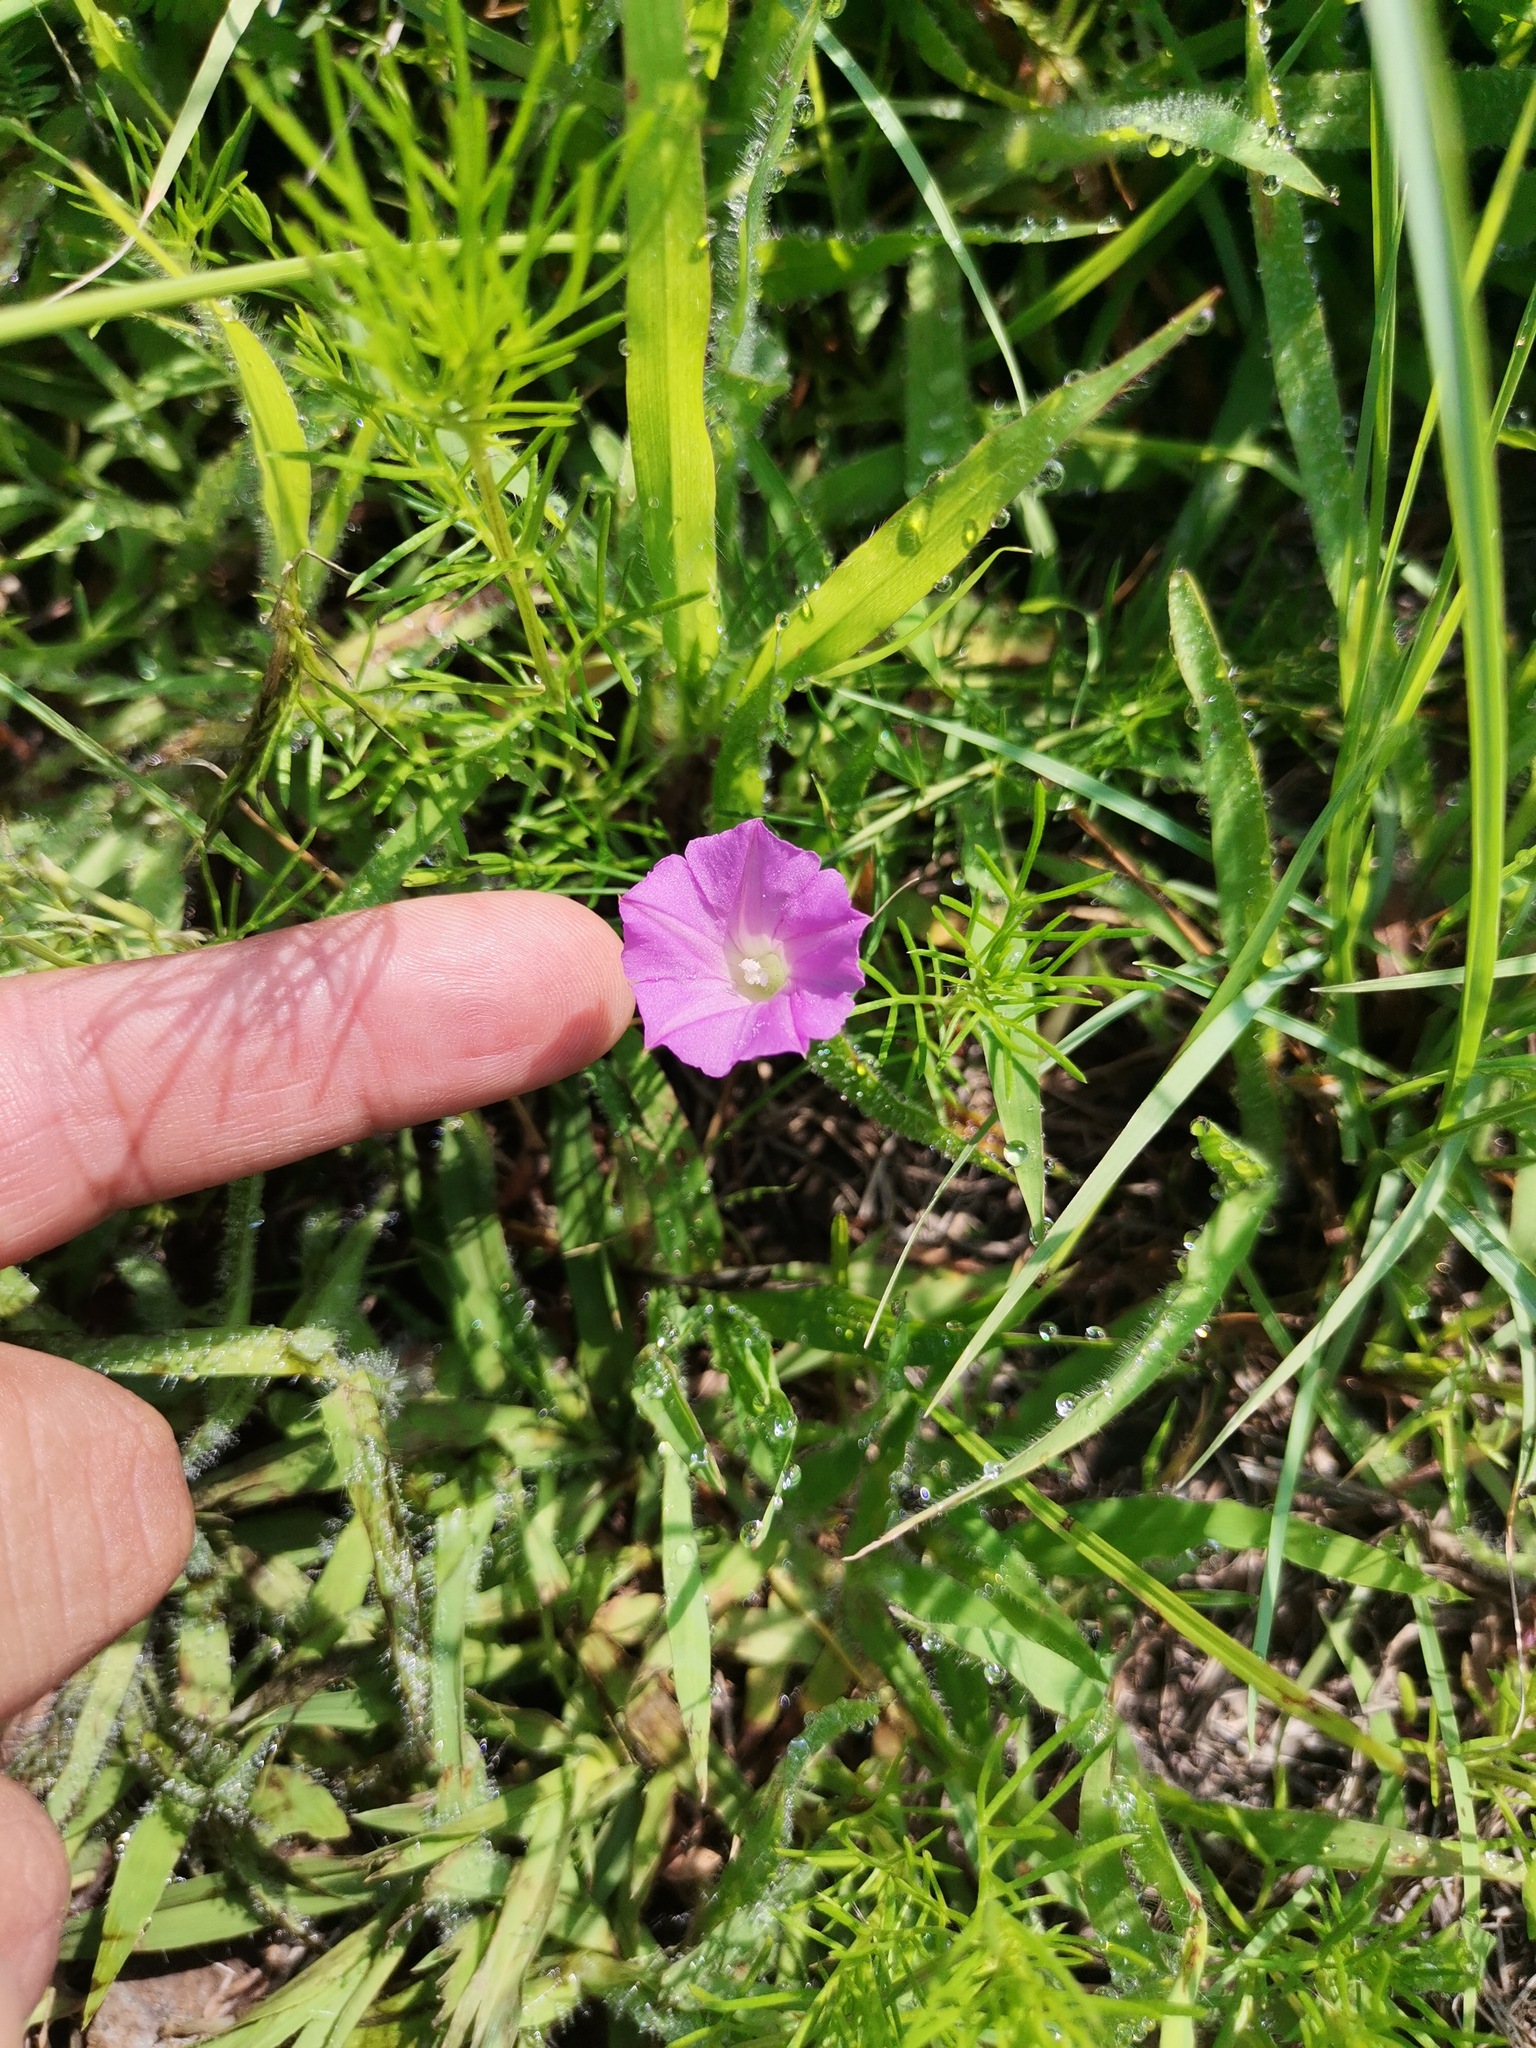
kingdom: Plantae
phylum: Tracheophyta
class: Magnoliopsida
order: Solanales
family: Convolvulaceae
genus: Ipomoea
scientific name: Ipomoea capillacea
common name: Purple morning-glory
